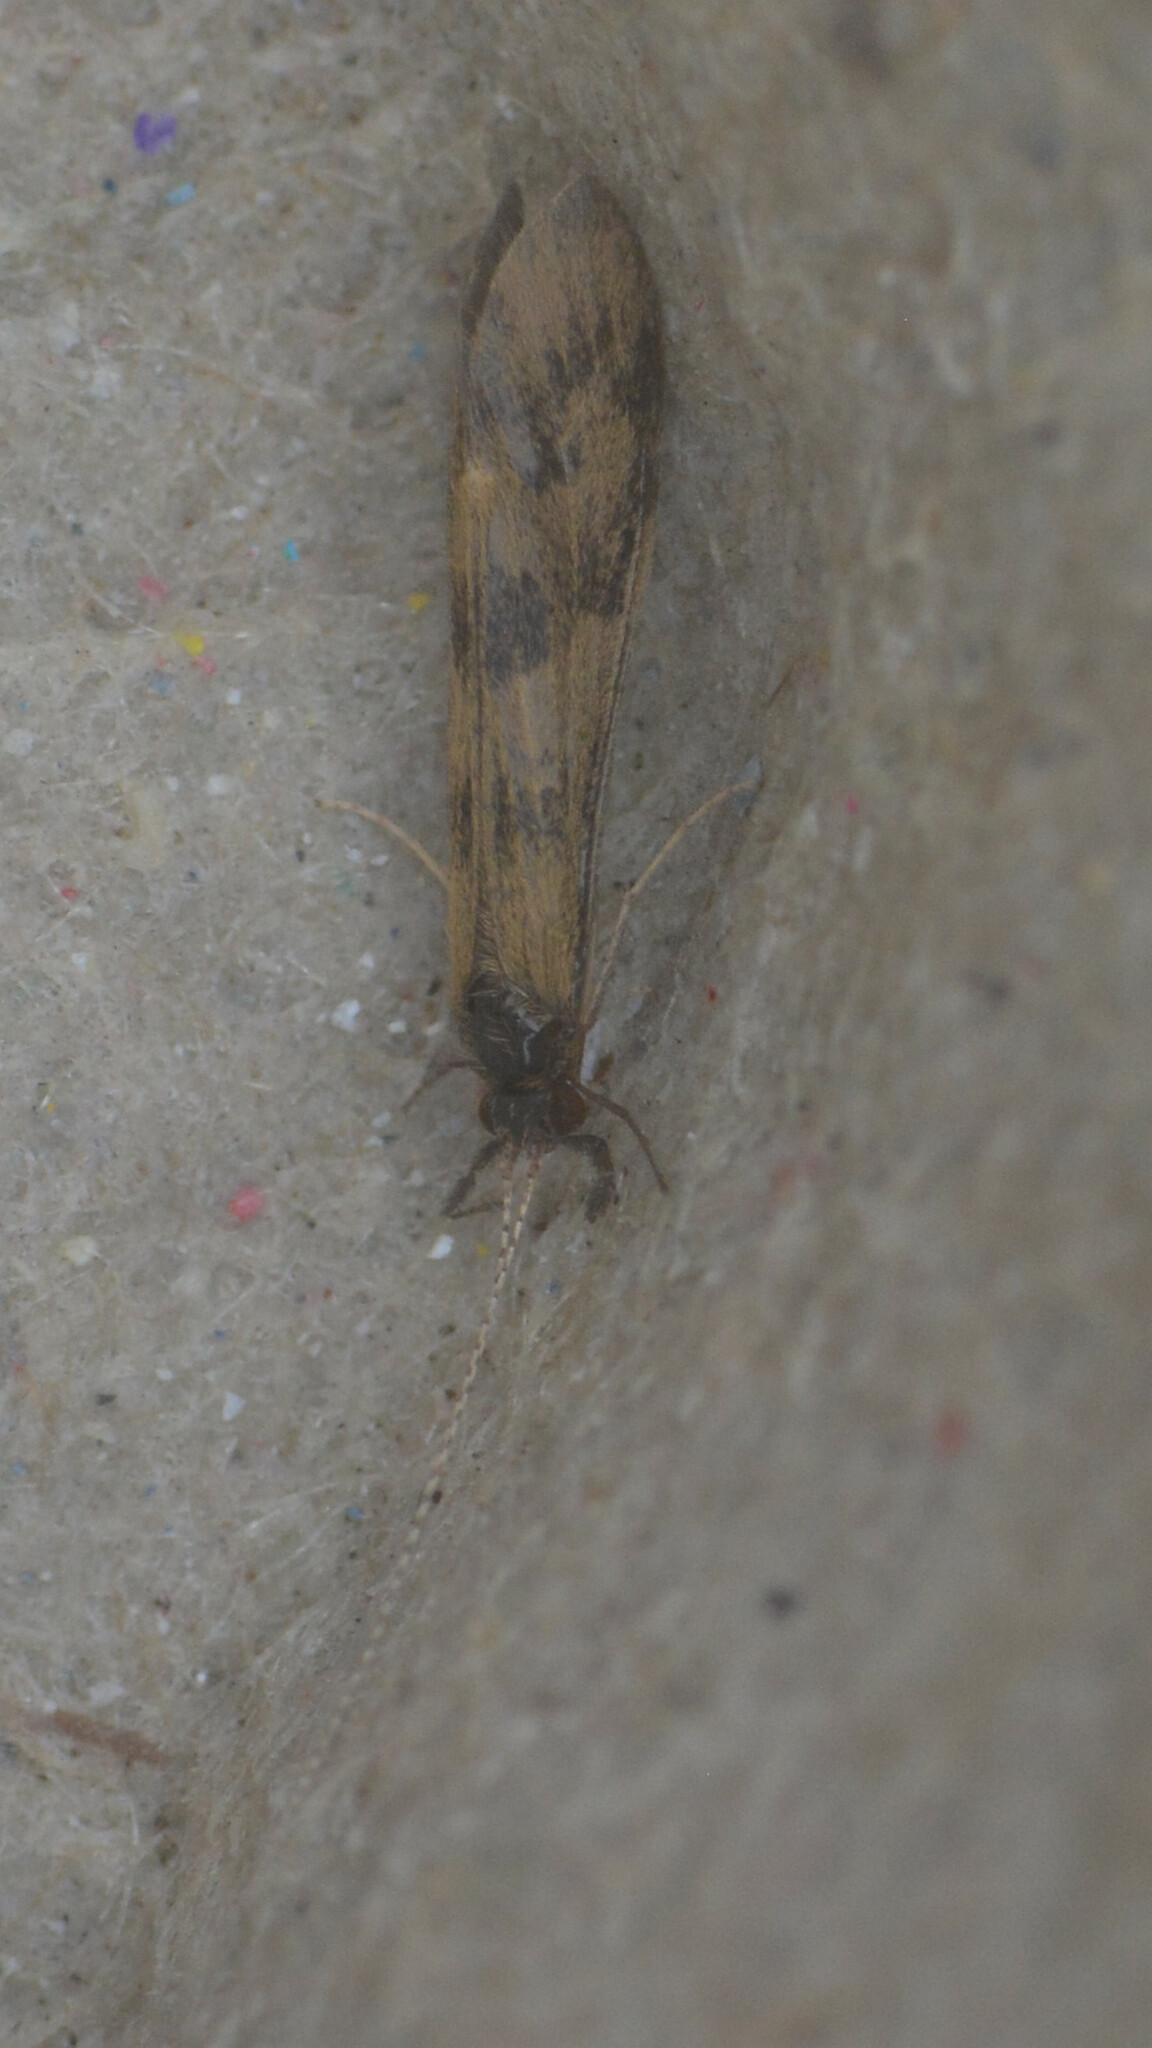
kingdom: Animalia
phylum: Arthropoda
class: Insecta
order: Trichoptera
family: Leptoceridae
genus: Mystacides
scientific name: Mystacides longicornis
